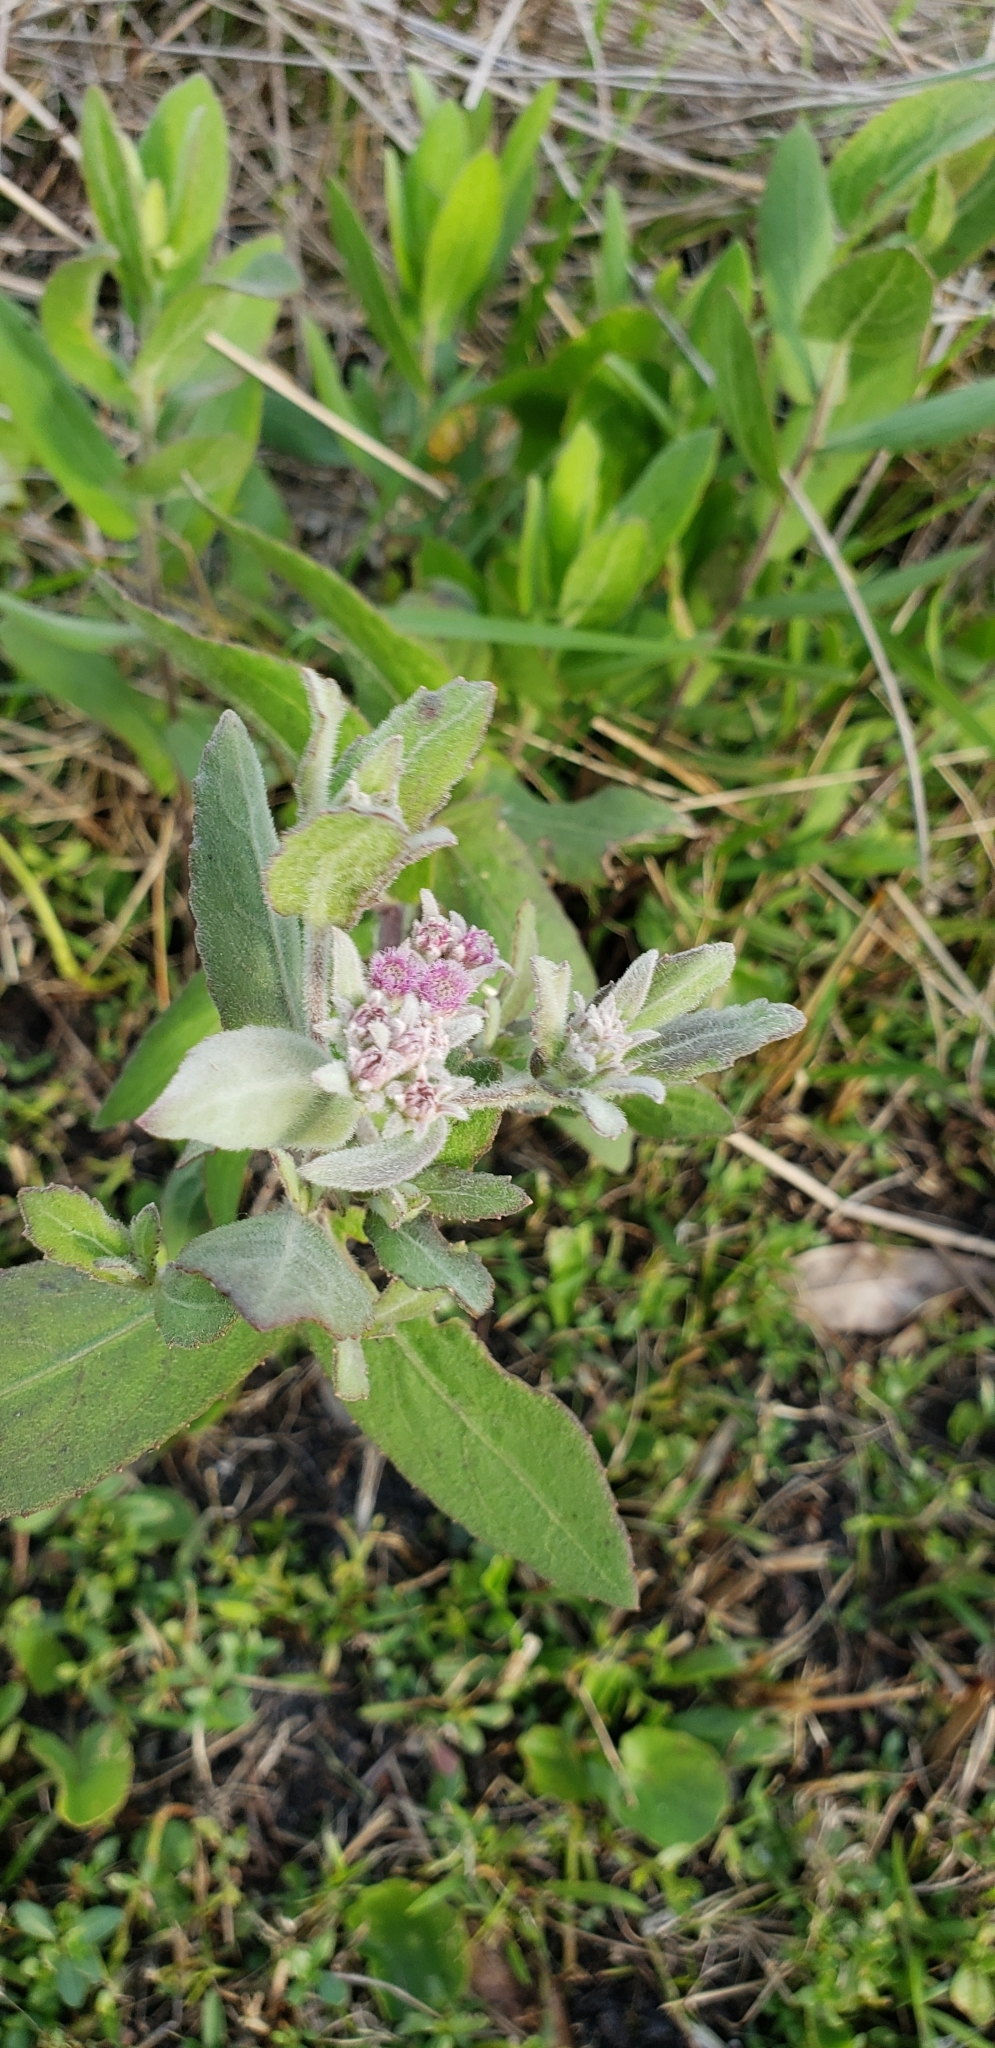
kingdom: Plantae
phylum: Tracheophyta
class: Magnoliopsida
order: Asterales
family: Asteraceae
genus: Pluchea
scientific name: Pluchea baccharis
